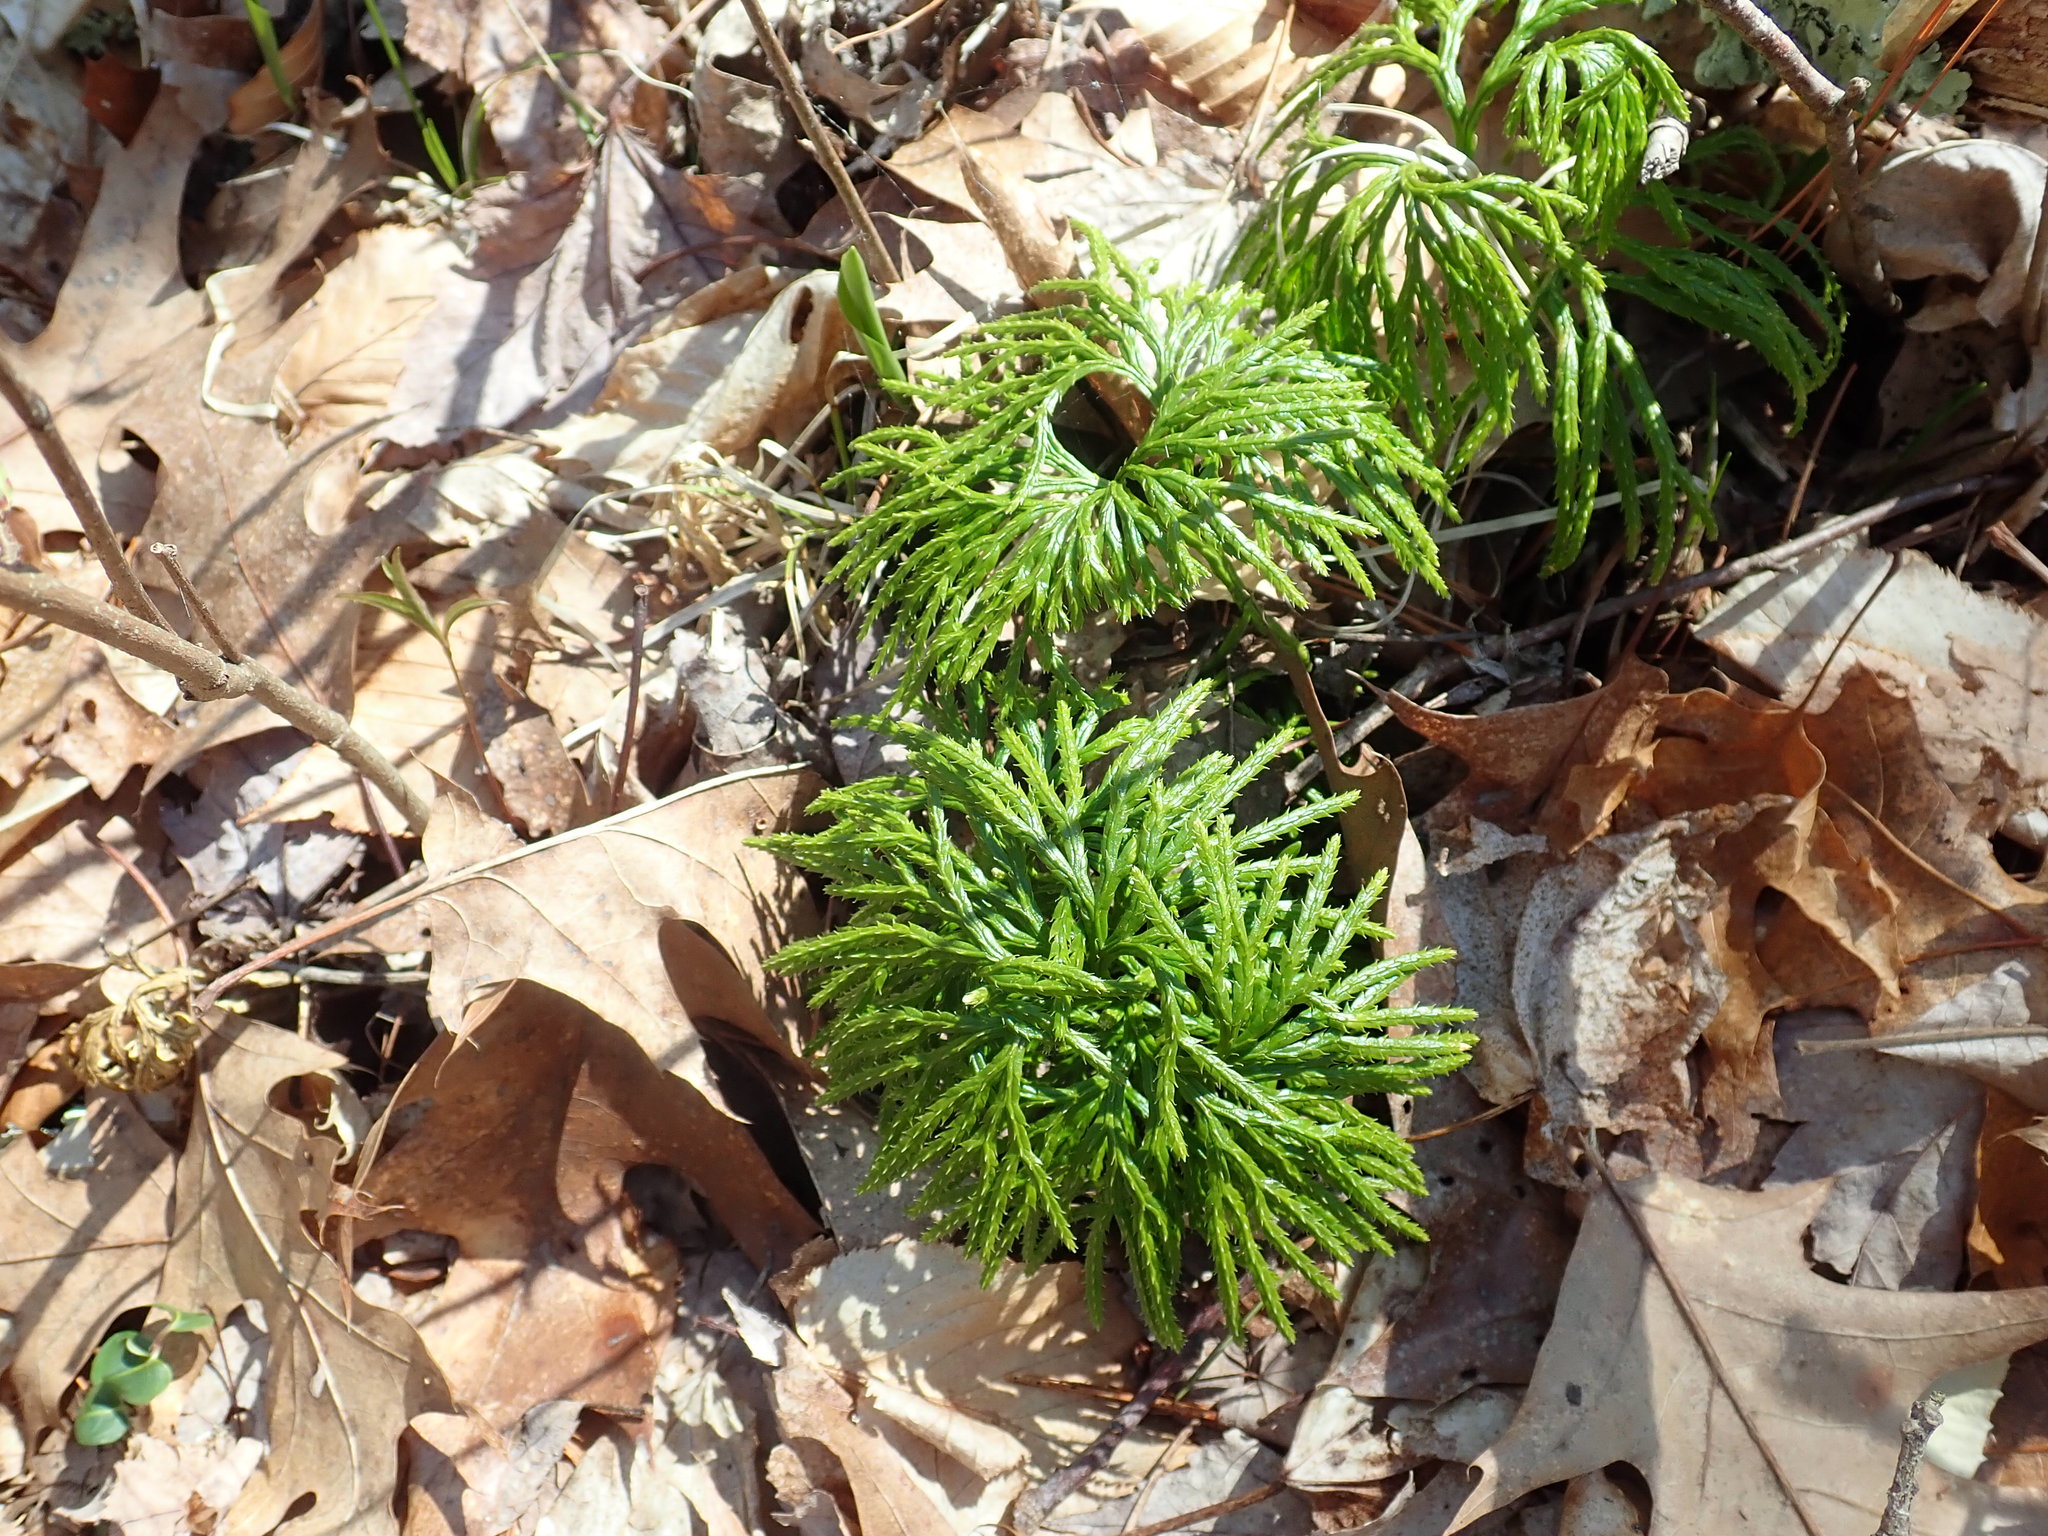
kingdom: Plantae
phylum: Tracheophyta
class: Lycopodiopsida
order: Lycopodiales
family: Lycopodiaceae
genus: Diphasiastrum
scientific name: Diphasiastrum digitatum
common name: Southern running-pine
